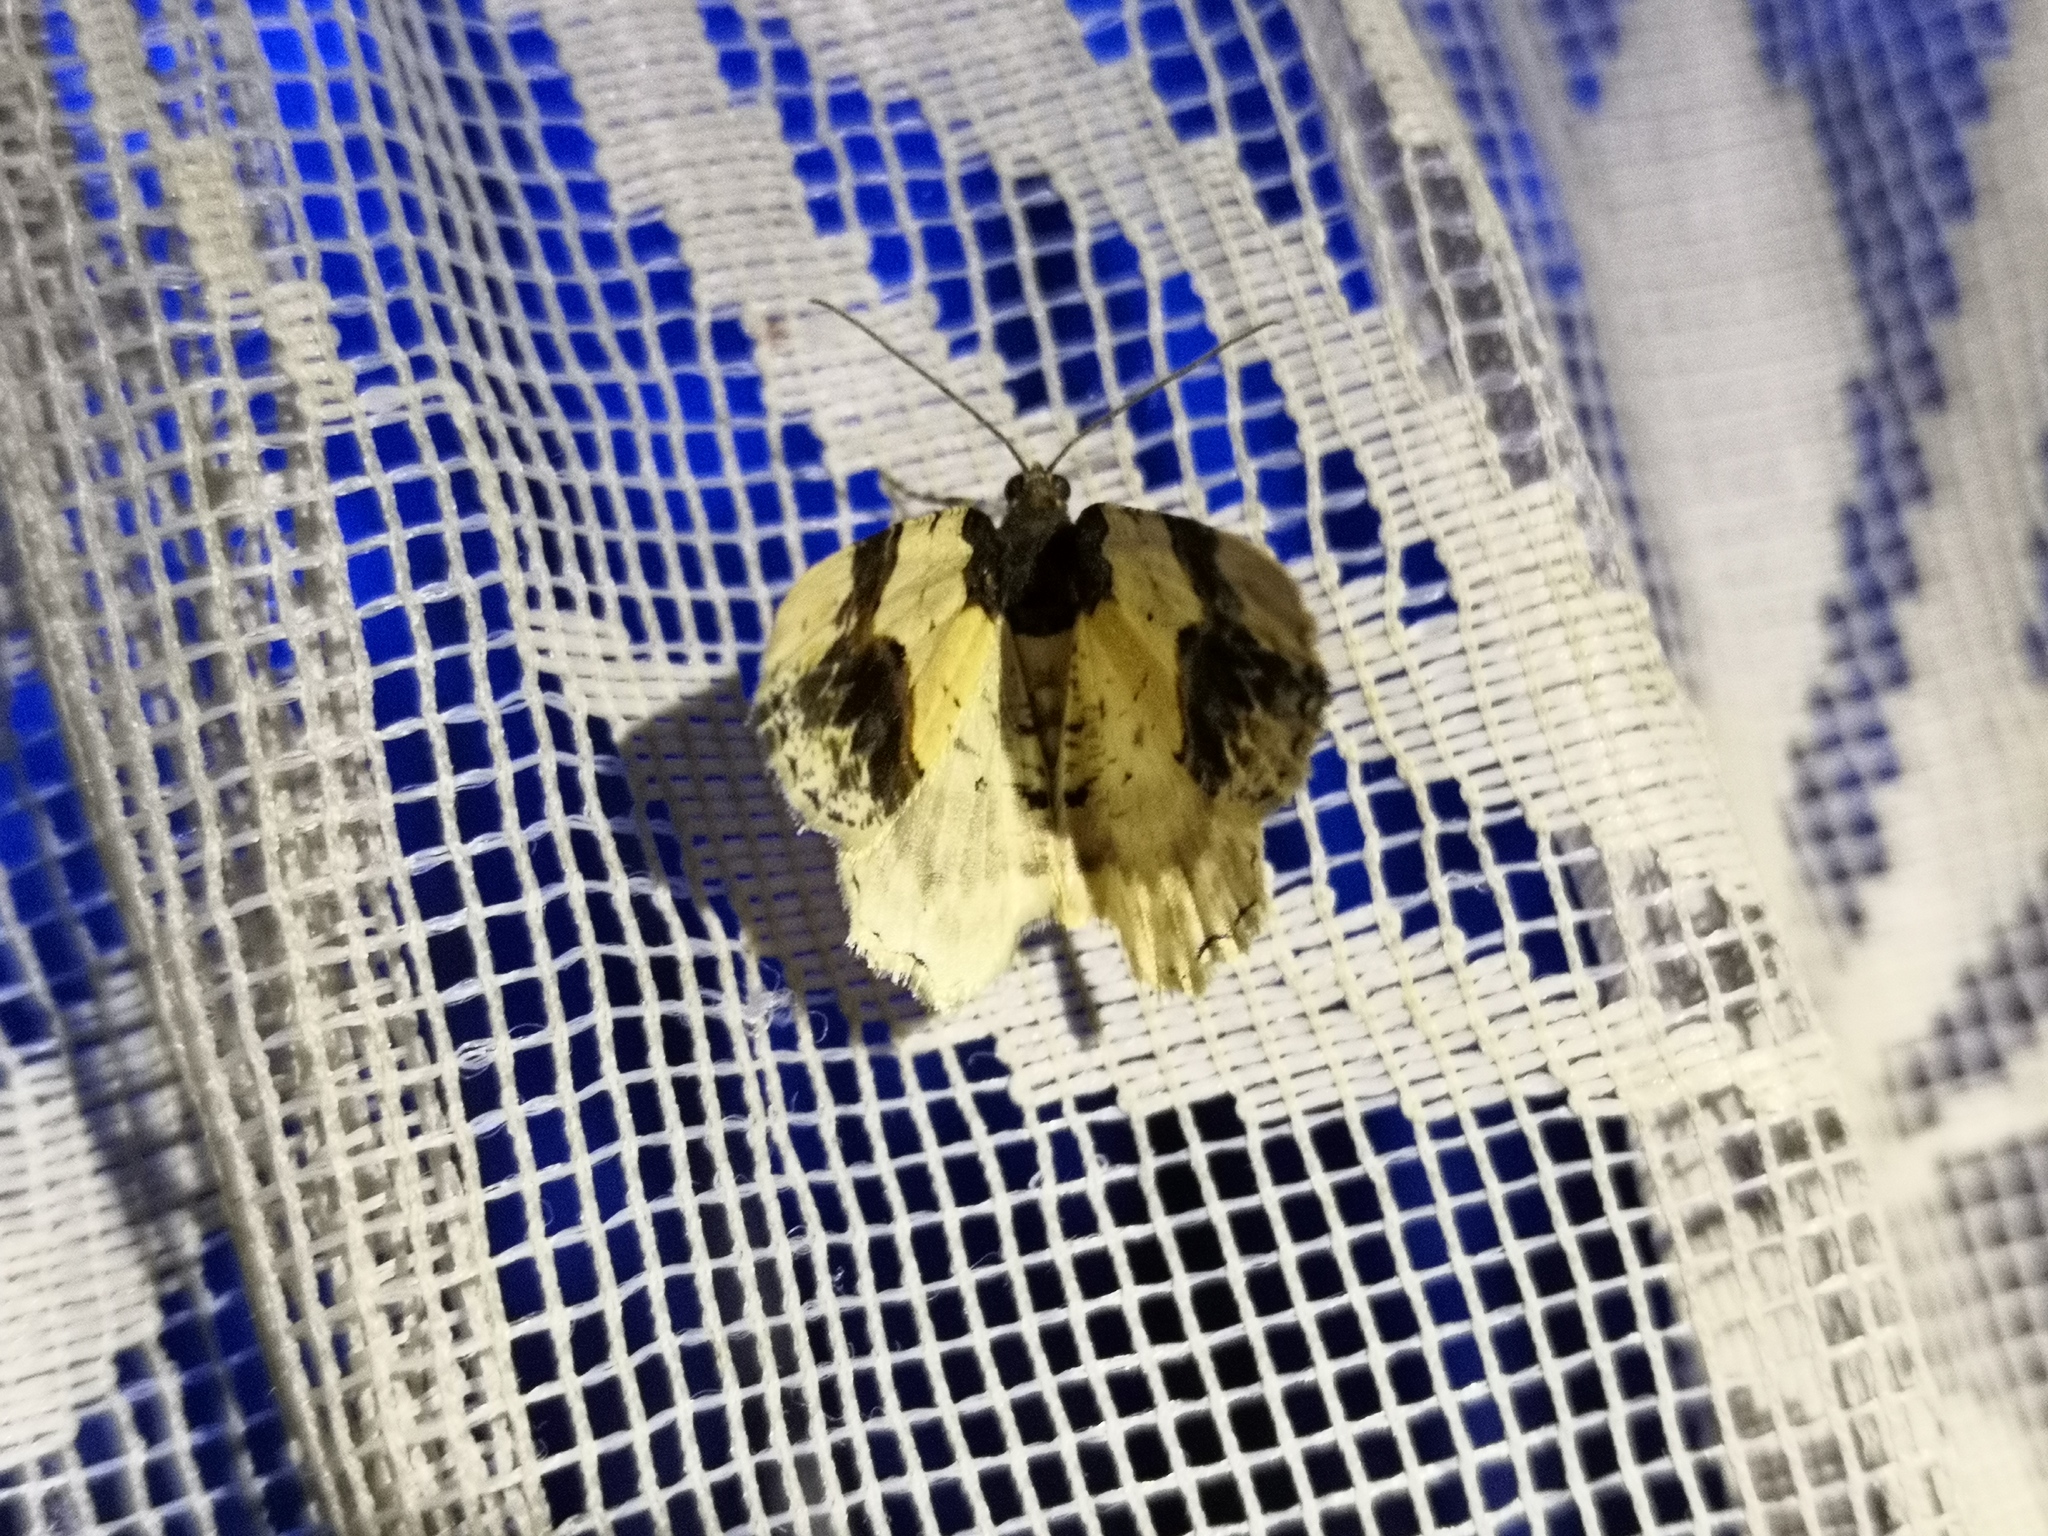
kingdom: Animalia
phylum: Arthropoda
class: Insecta
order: Lepidoptera
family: Geometridae
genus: Ligdia
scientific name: Ligdia adustata
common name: Scorched carpet
